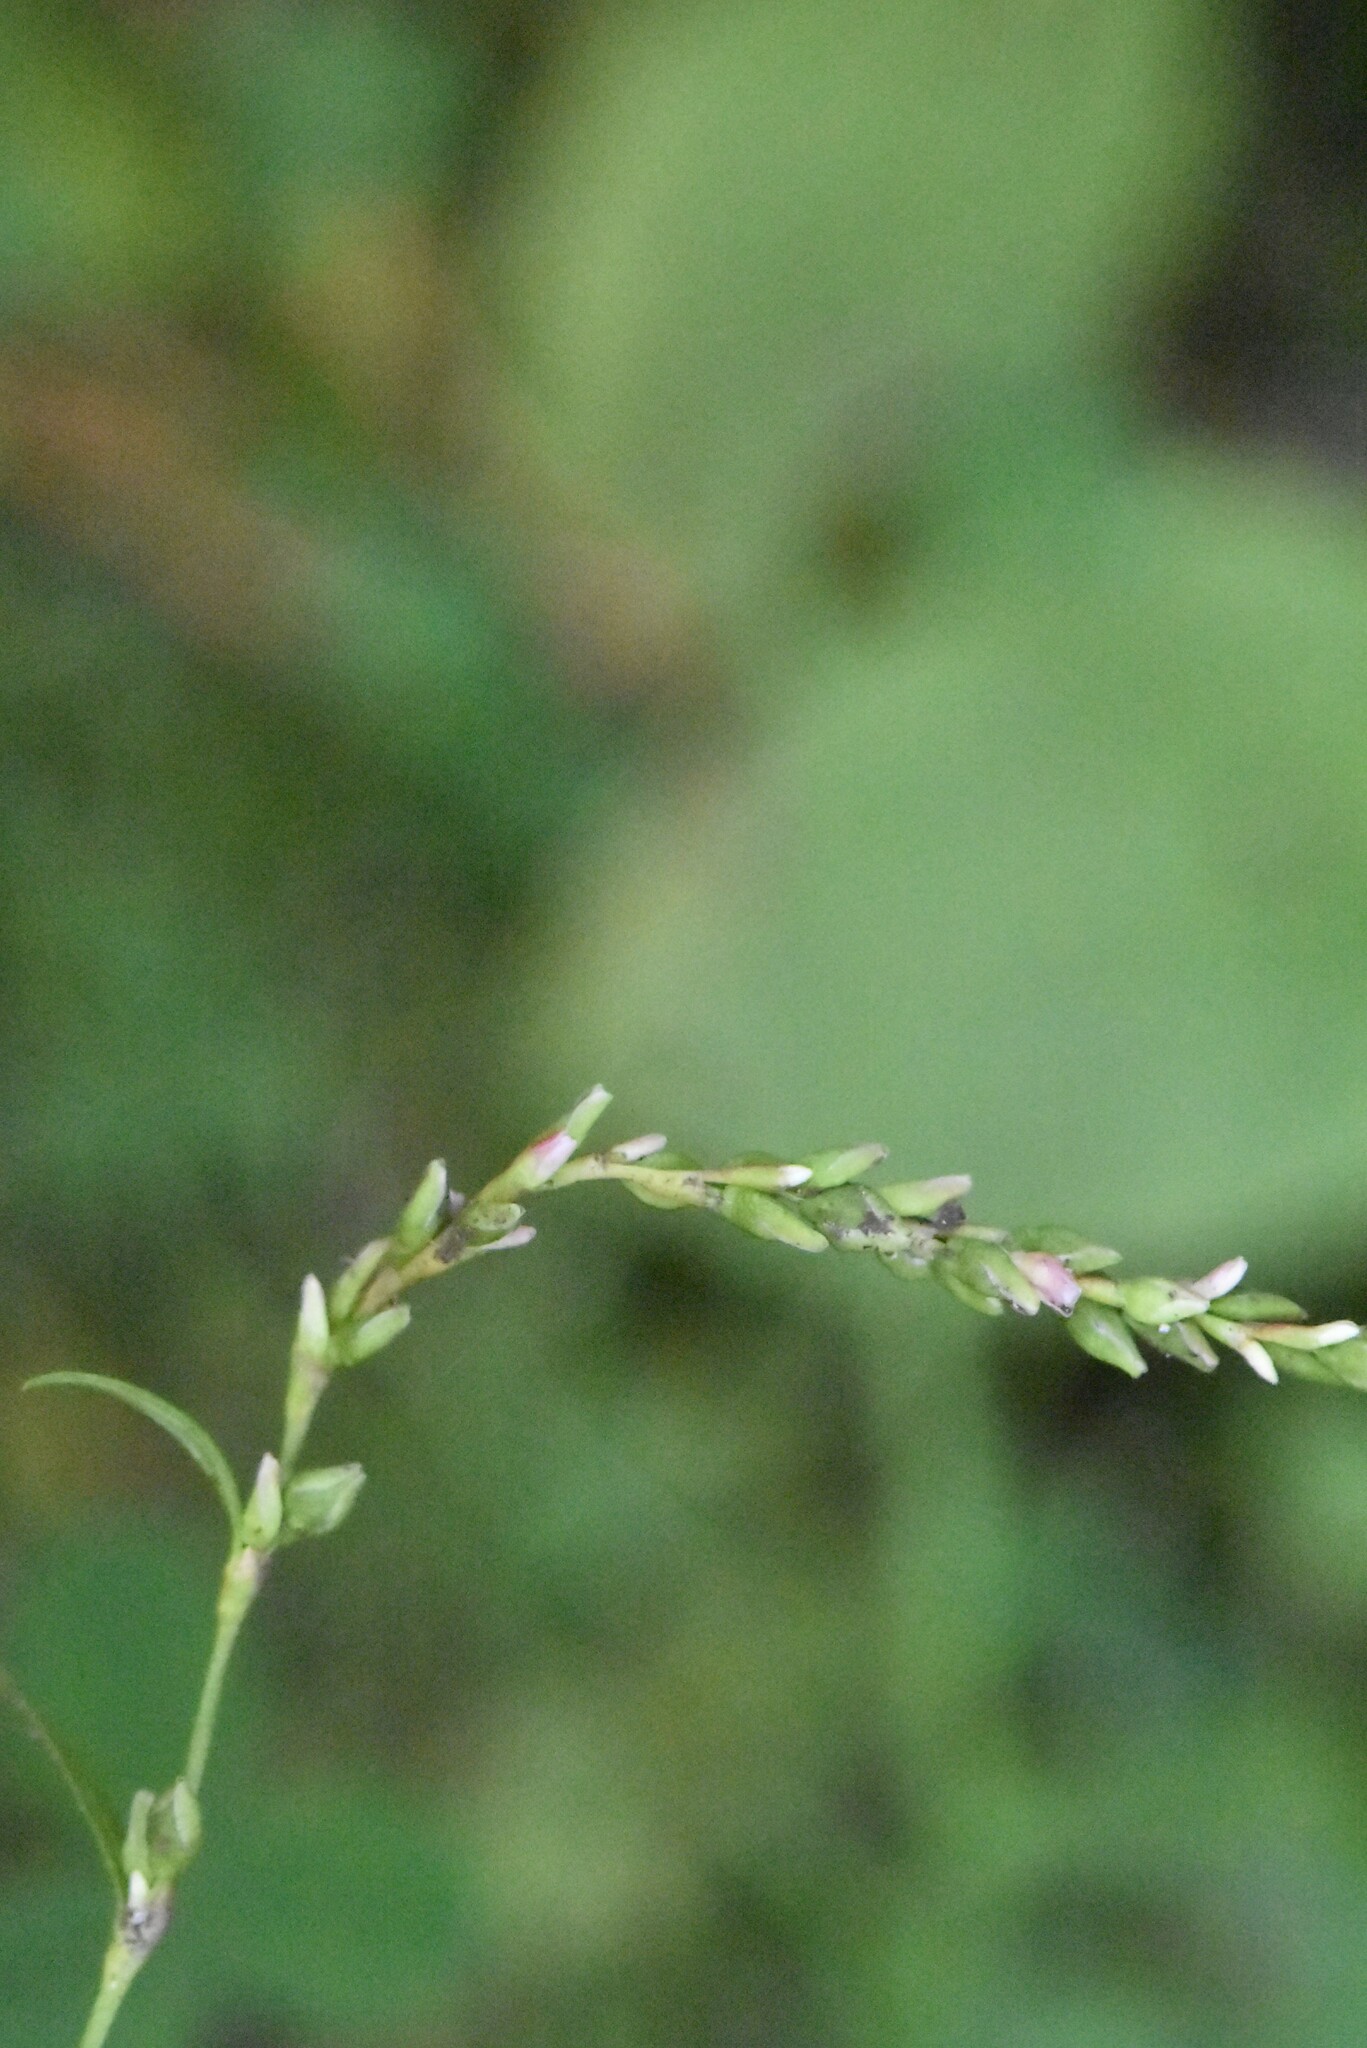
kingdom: Plantae
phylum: Tracheophyta
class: Magnoliopsida
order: Caryophyllales
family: Polygonaceae
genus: Persicaria
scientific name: Persicaria hydropiper
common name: Water-pepper
